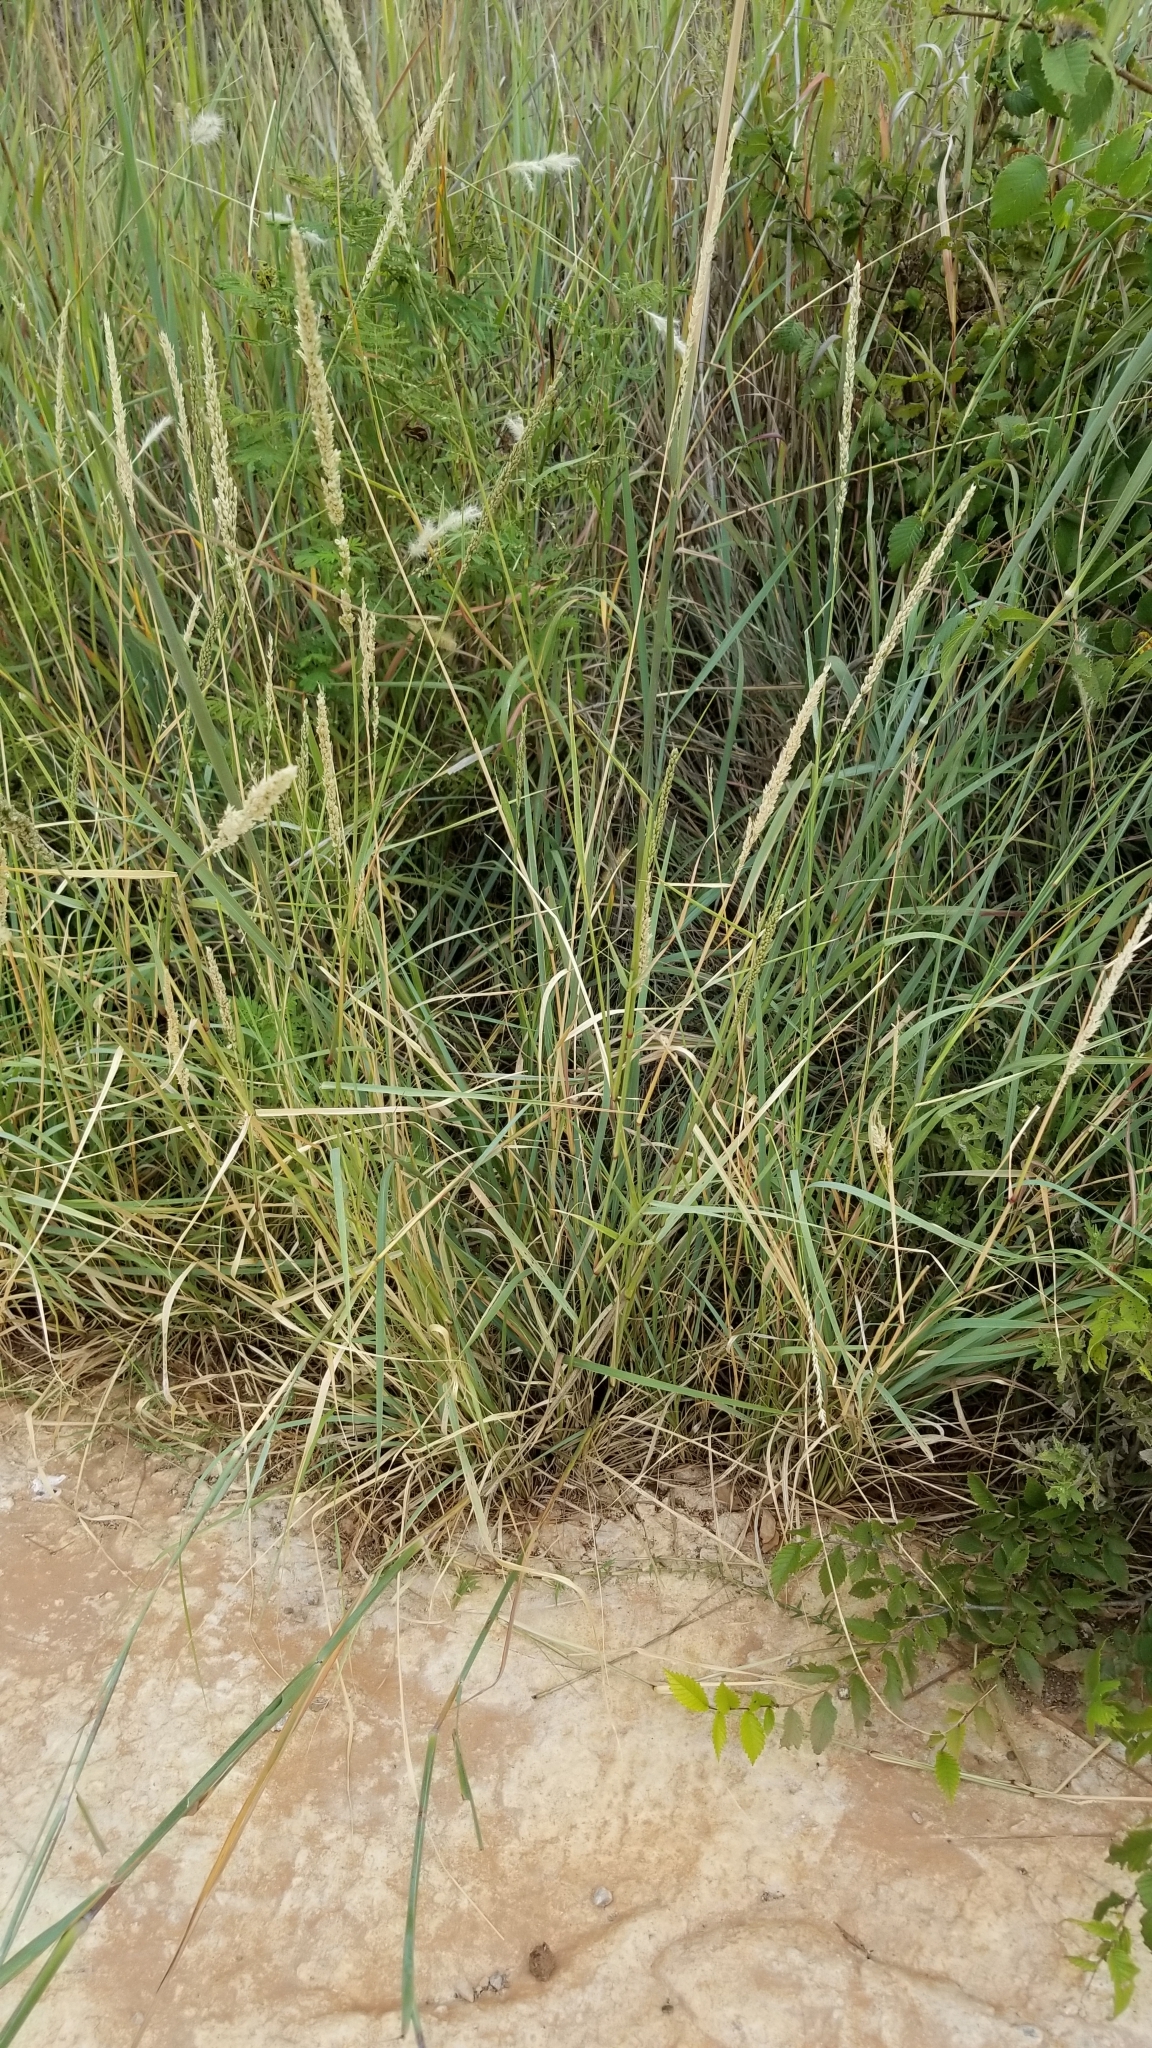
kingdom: Plantae
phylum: Tracheophyta
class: Liliopsida
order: Poales
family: Poaceae
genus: Sorghastrum
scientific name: Sorghastrum nutans
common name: Indian grass
